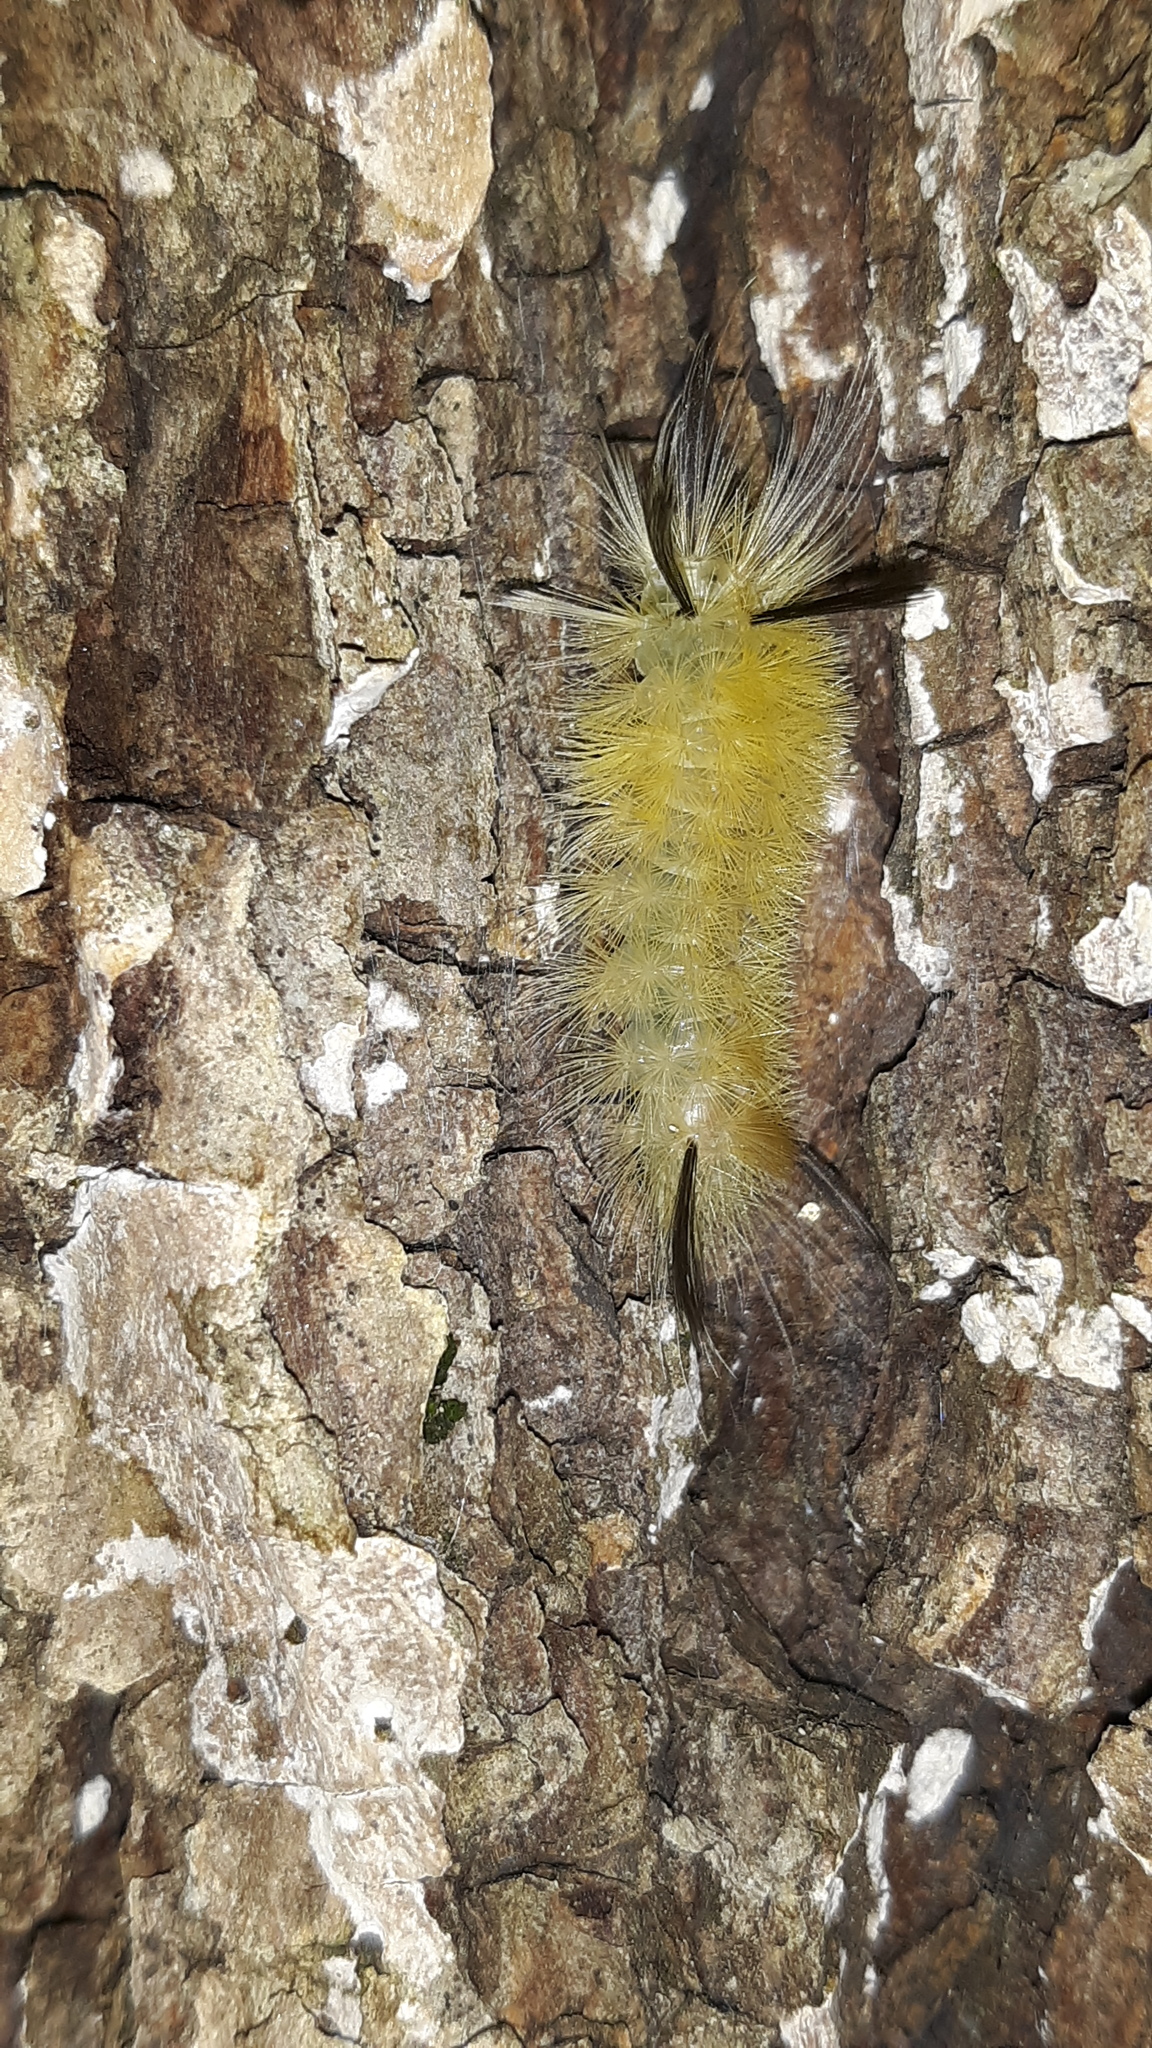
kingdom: Animalia
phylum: Arthropoda
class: Insecta
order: Lepidoptera
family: Erebidae
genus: Halysidota
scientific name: Halysidota tessellaris
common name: Banded tussock moth
